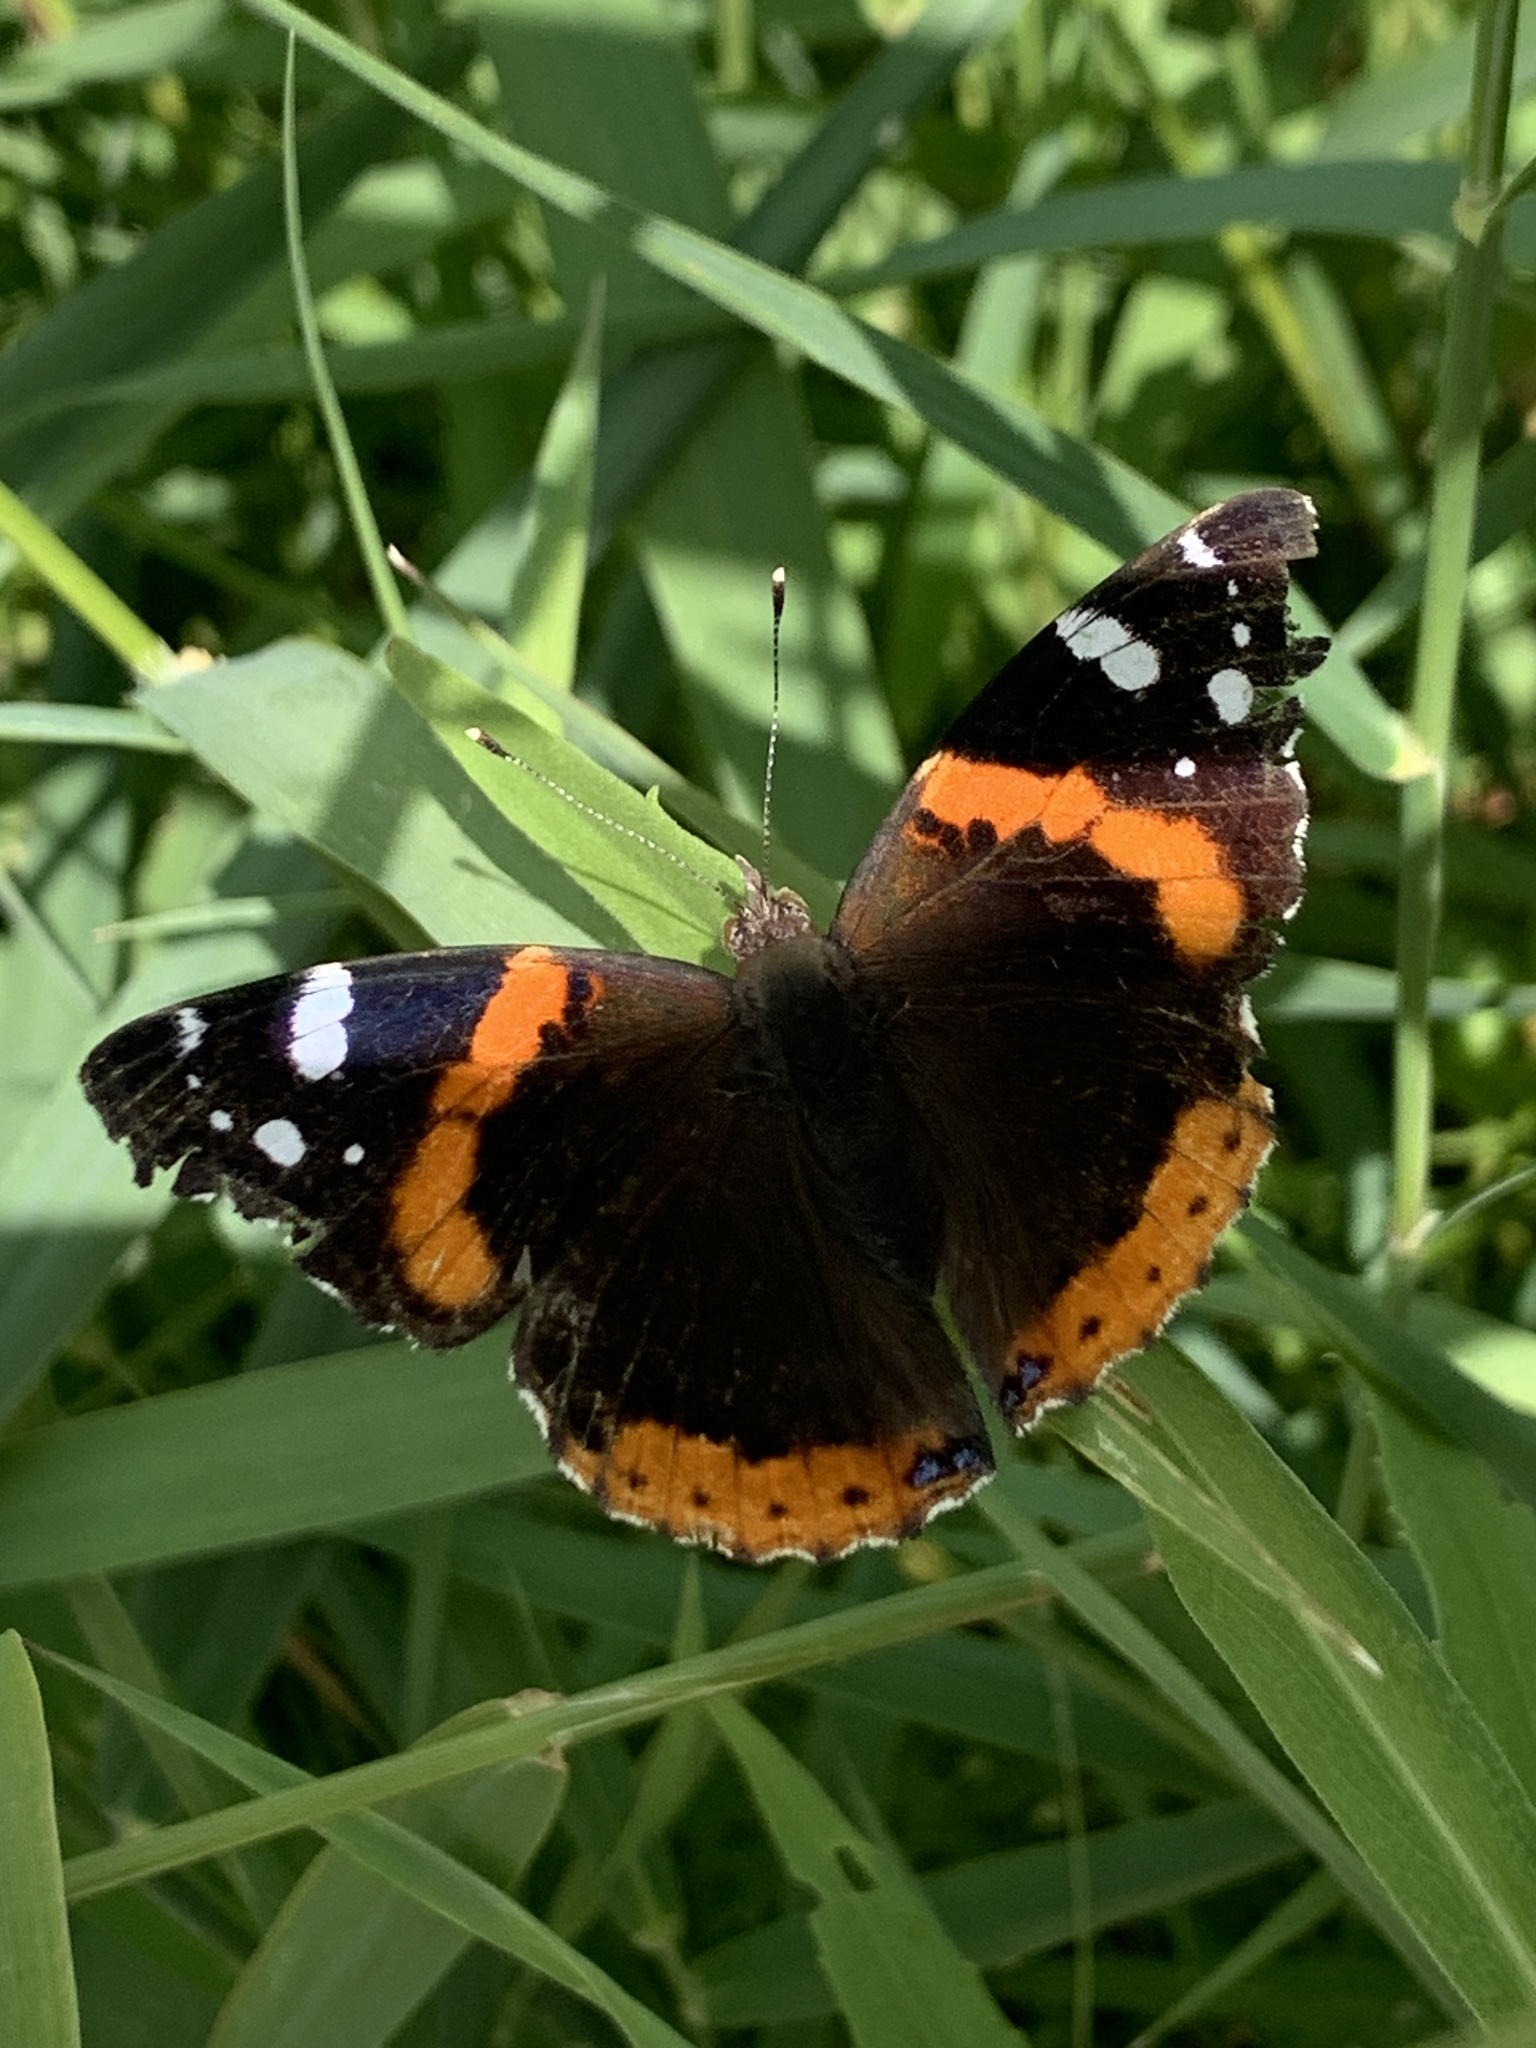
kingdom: Animalia
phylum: Arthropoda
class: Insecta
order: Lepidoptera
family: Nymphalidae
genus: Vanessa
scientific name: Vanessa atalanta
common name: Red admiral
